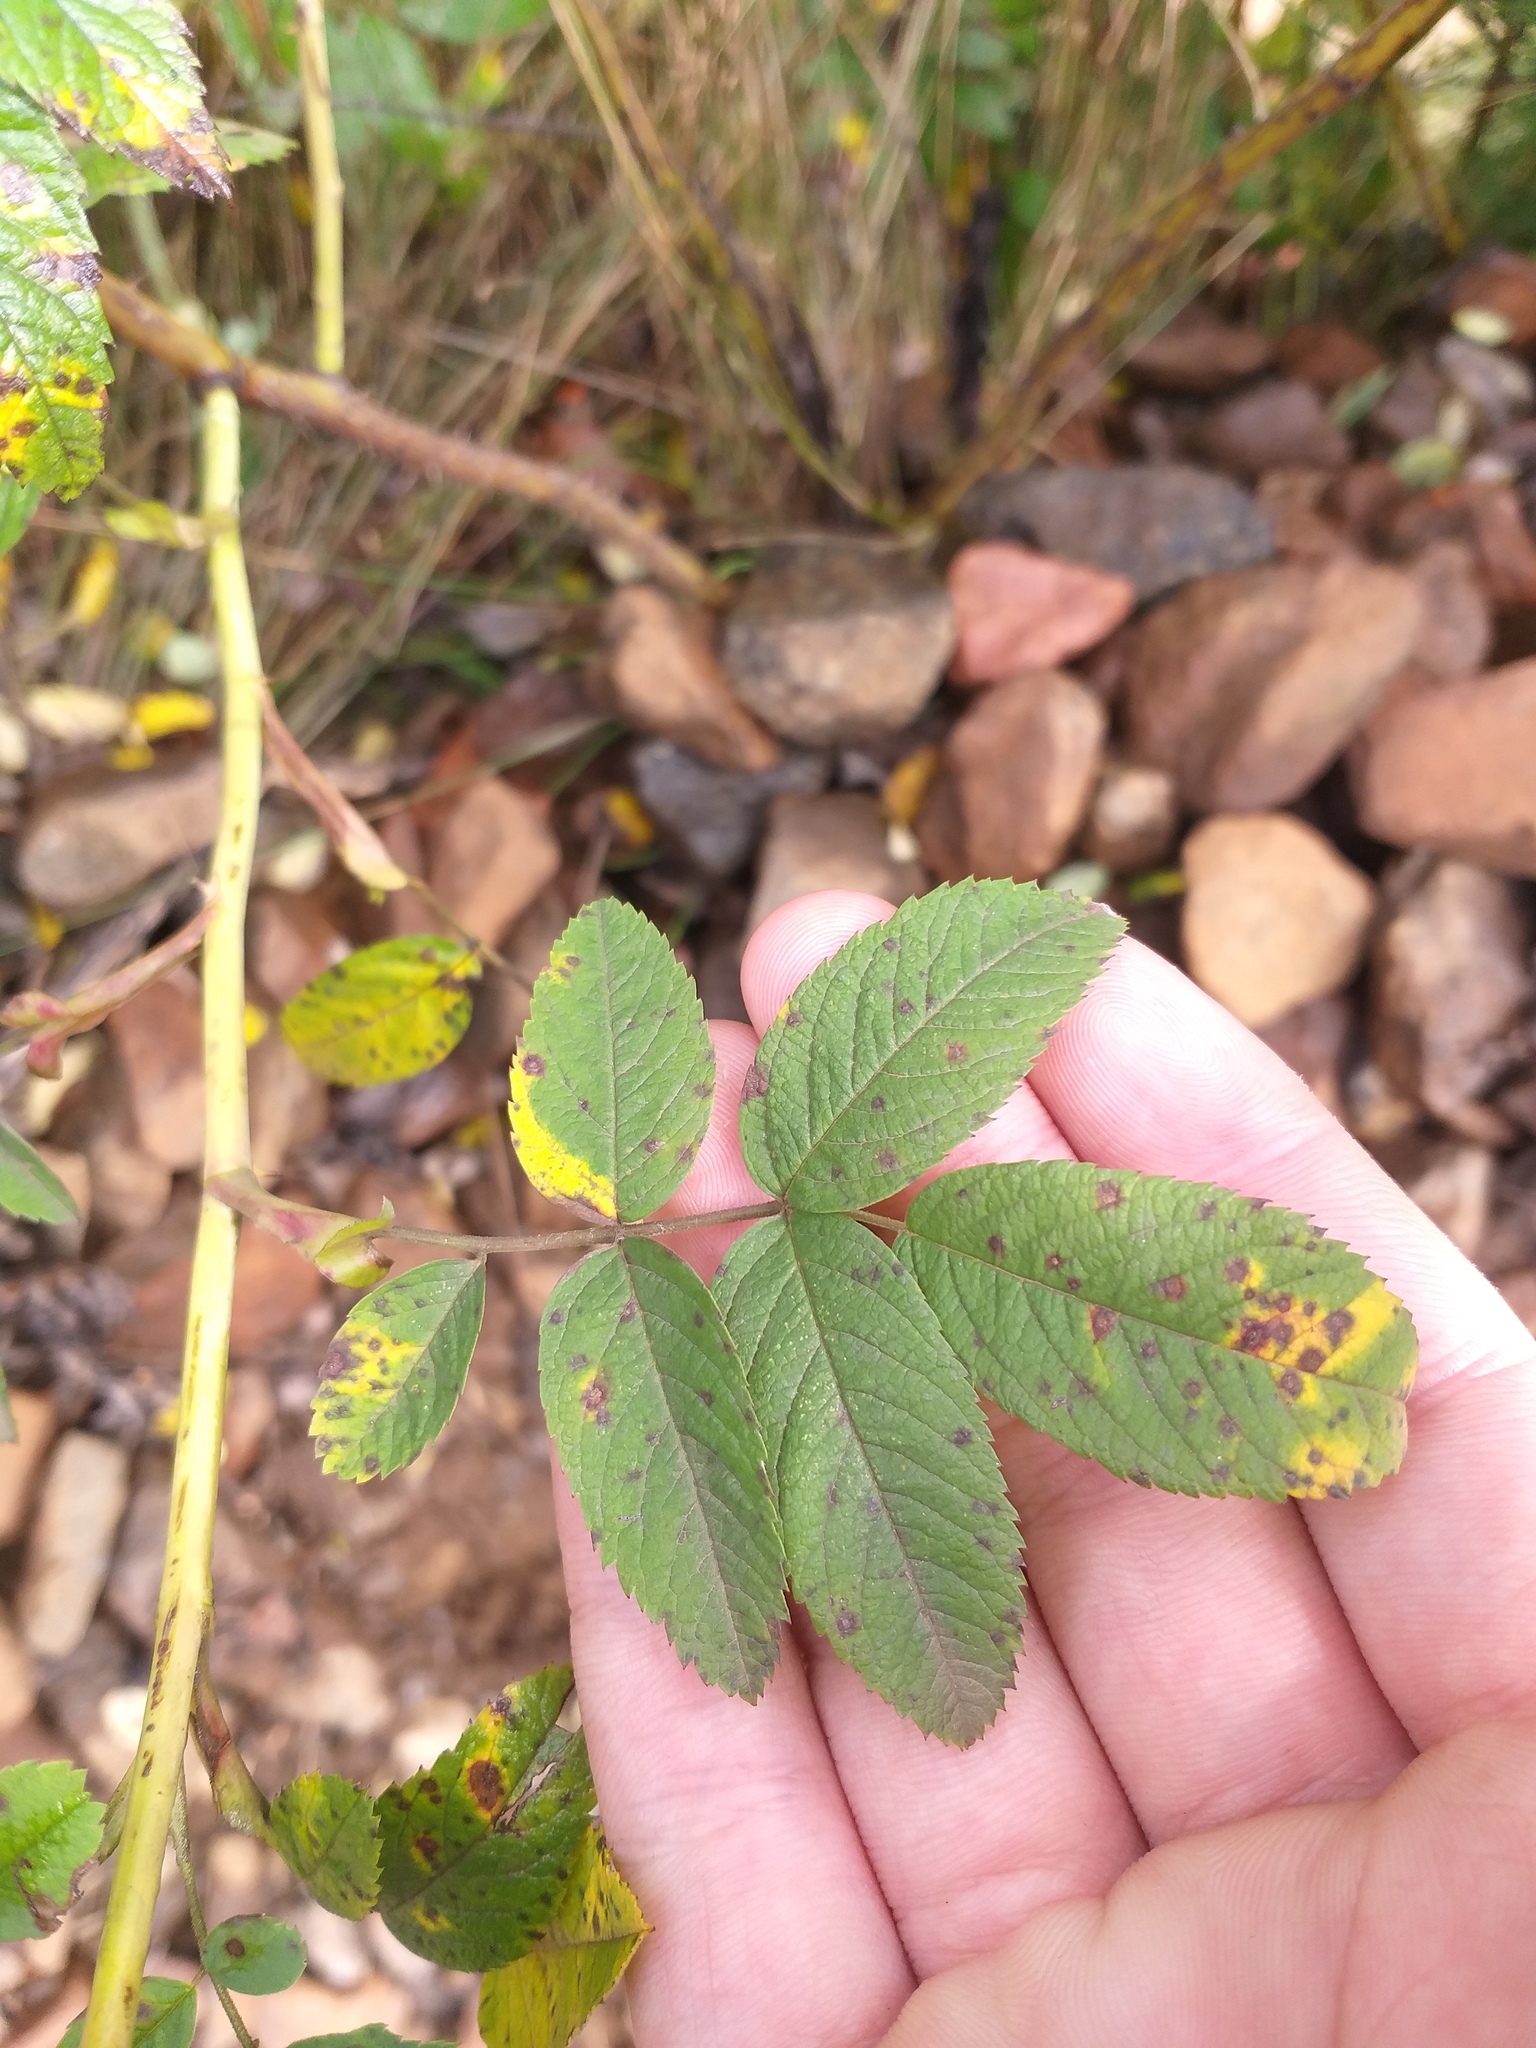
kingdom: Plantae
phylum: Tracheophyta
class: Magnoliopsida
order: Rosales
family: Rosaceae
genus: Rosa
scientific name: Rosa majalis
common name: Cinnamon rose
